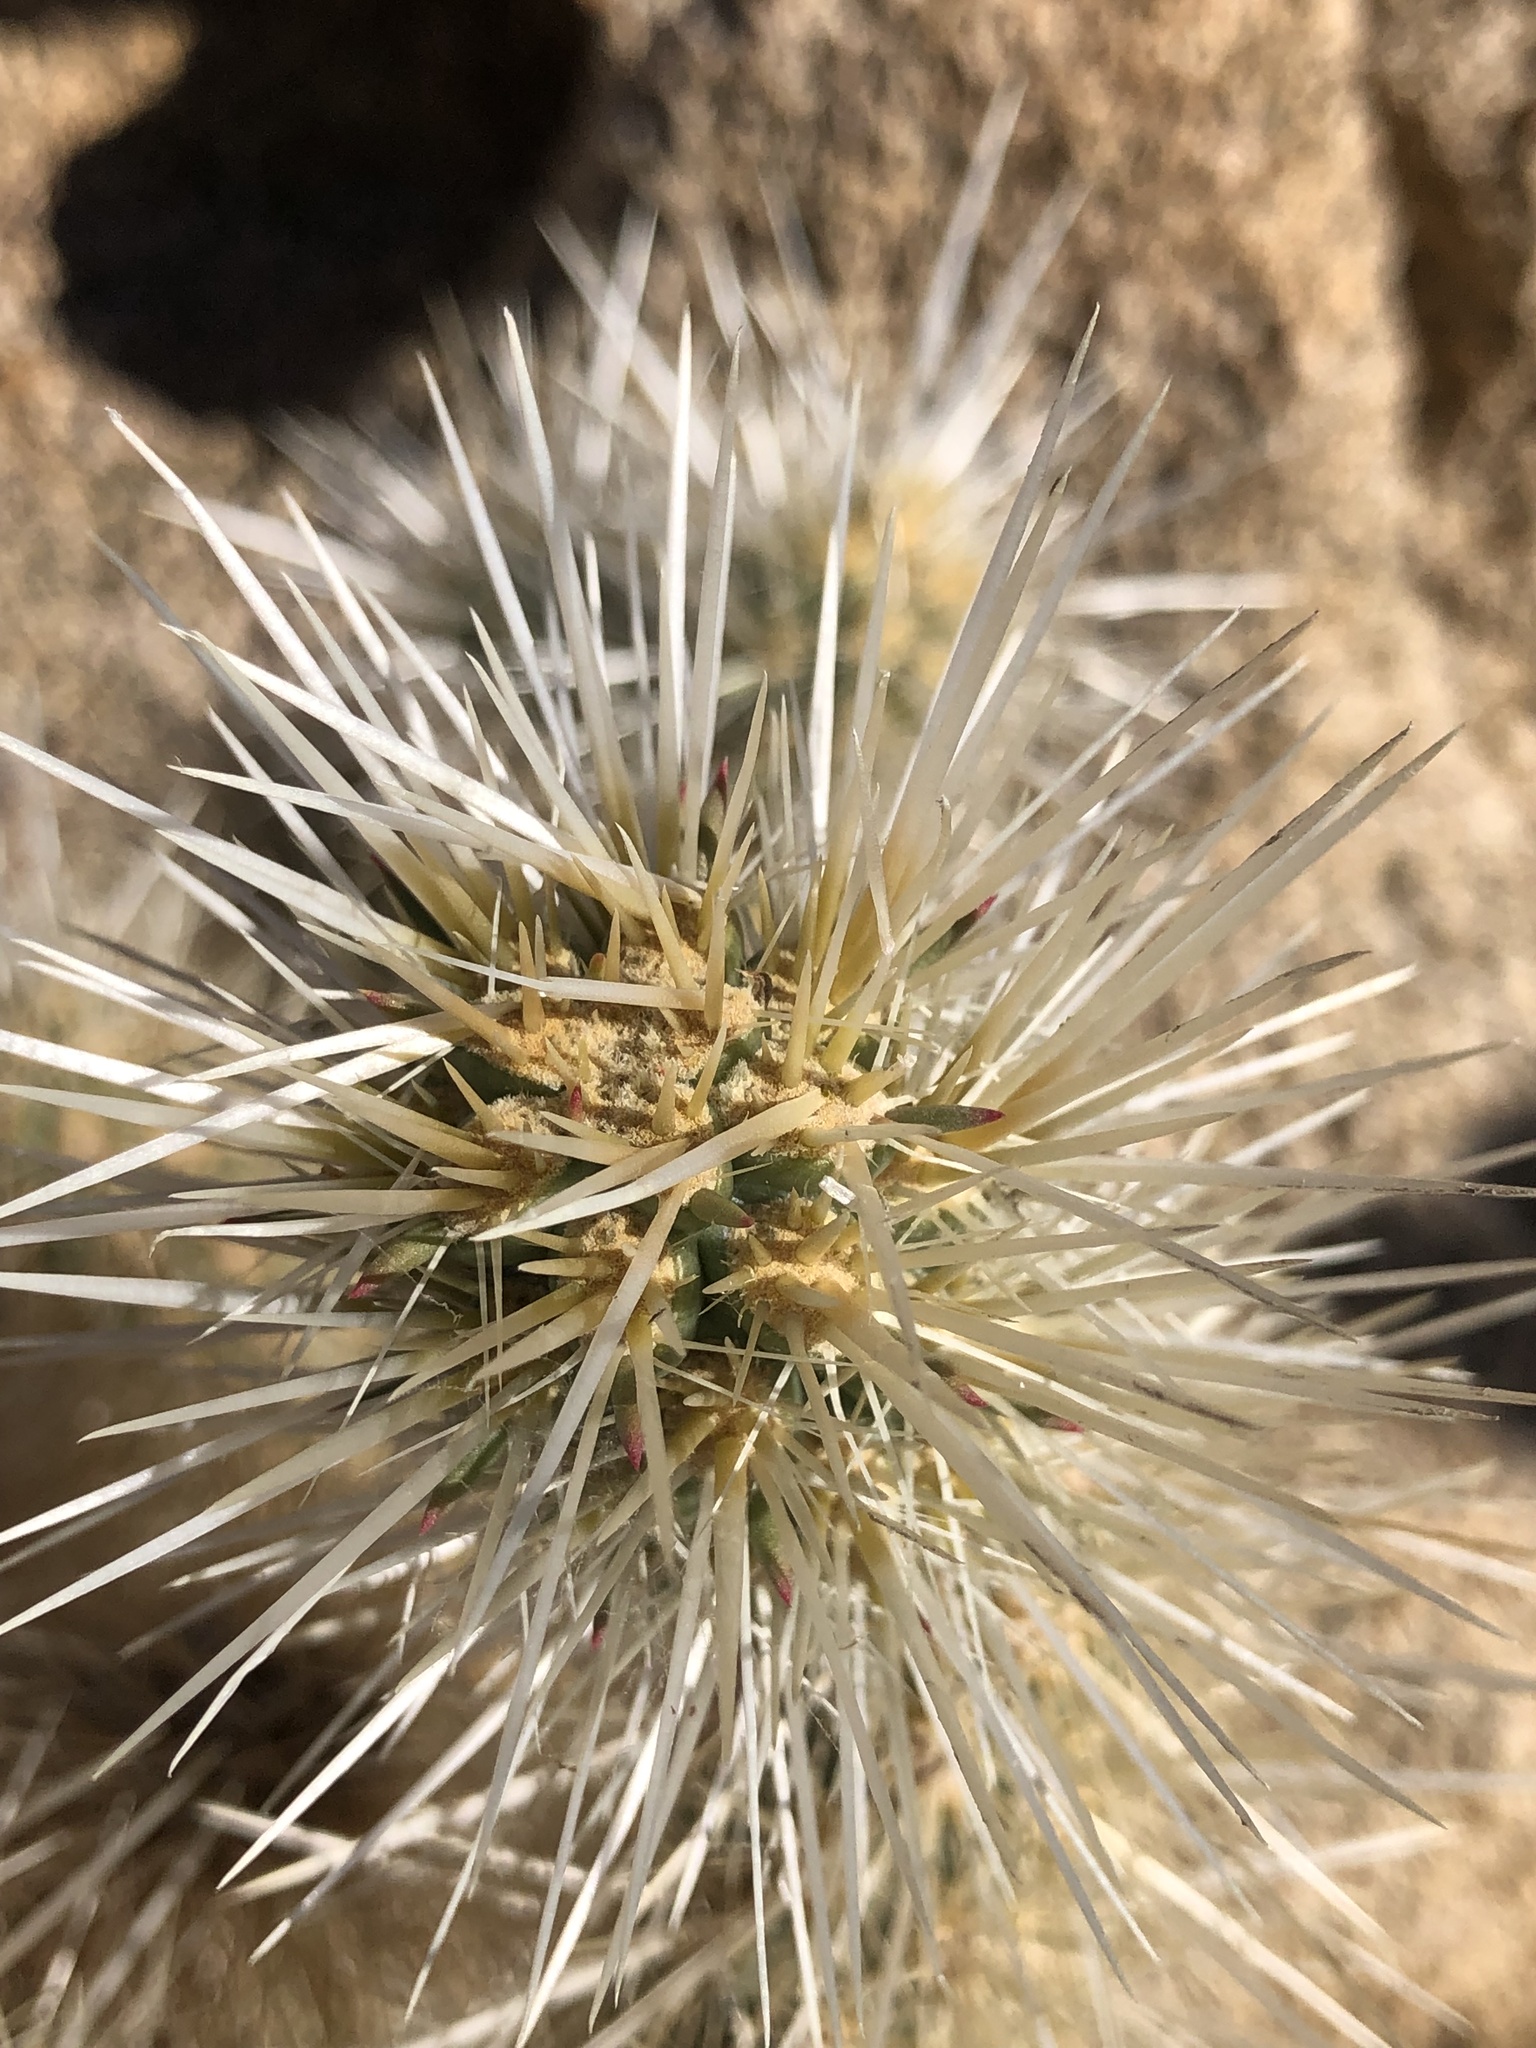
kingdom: Plantae
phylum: Tracheophyta
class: Magnoliopsida
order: Caryophyllales
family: Cactaceae
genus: Cylindropuntia
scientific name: Cylindropuntia chuckwallensis
